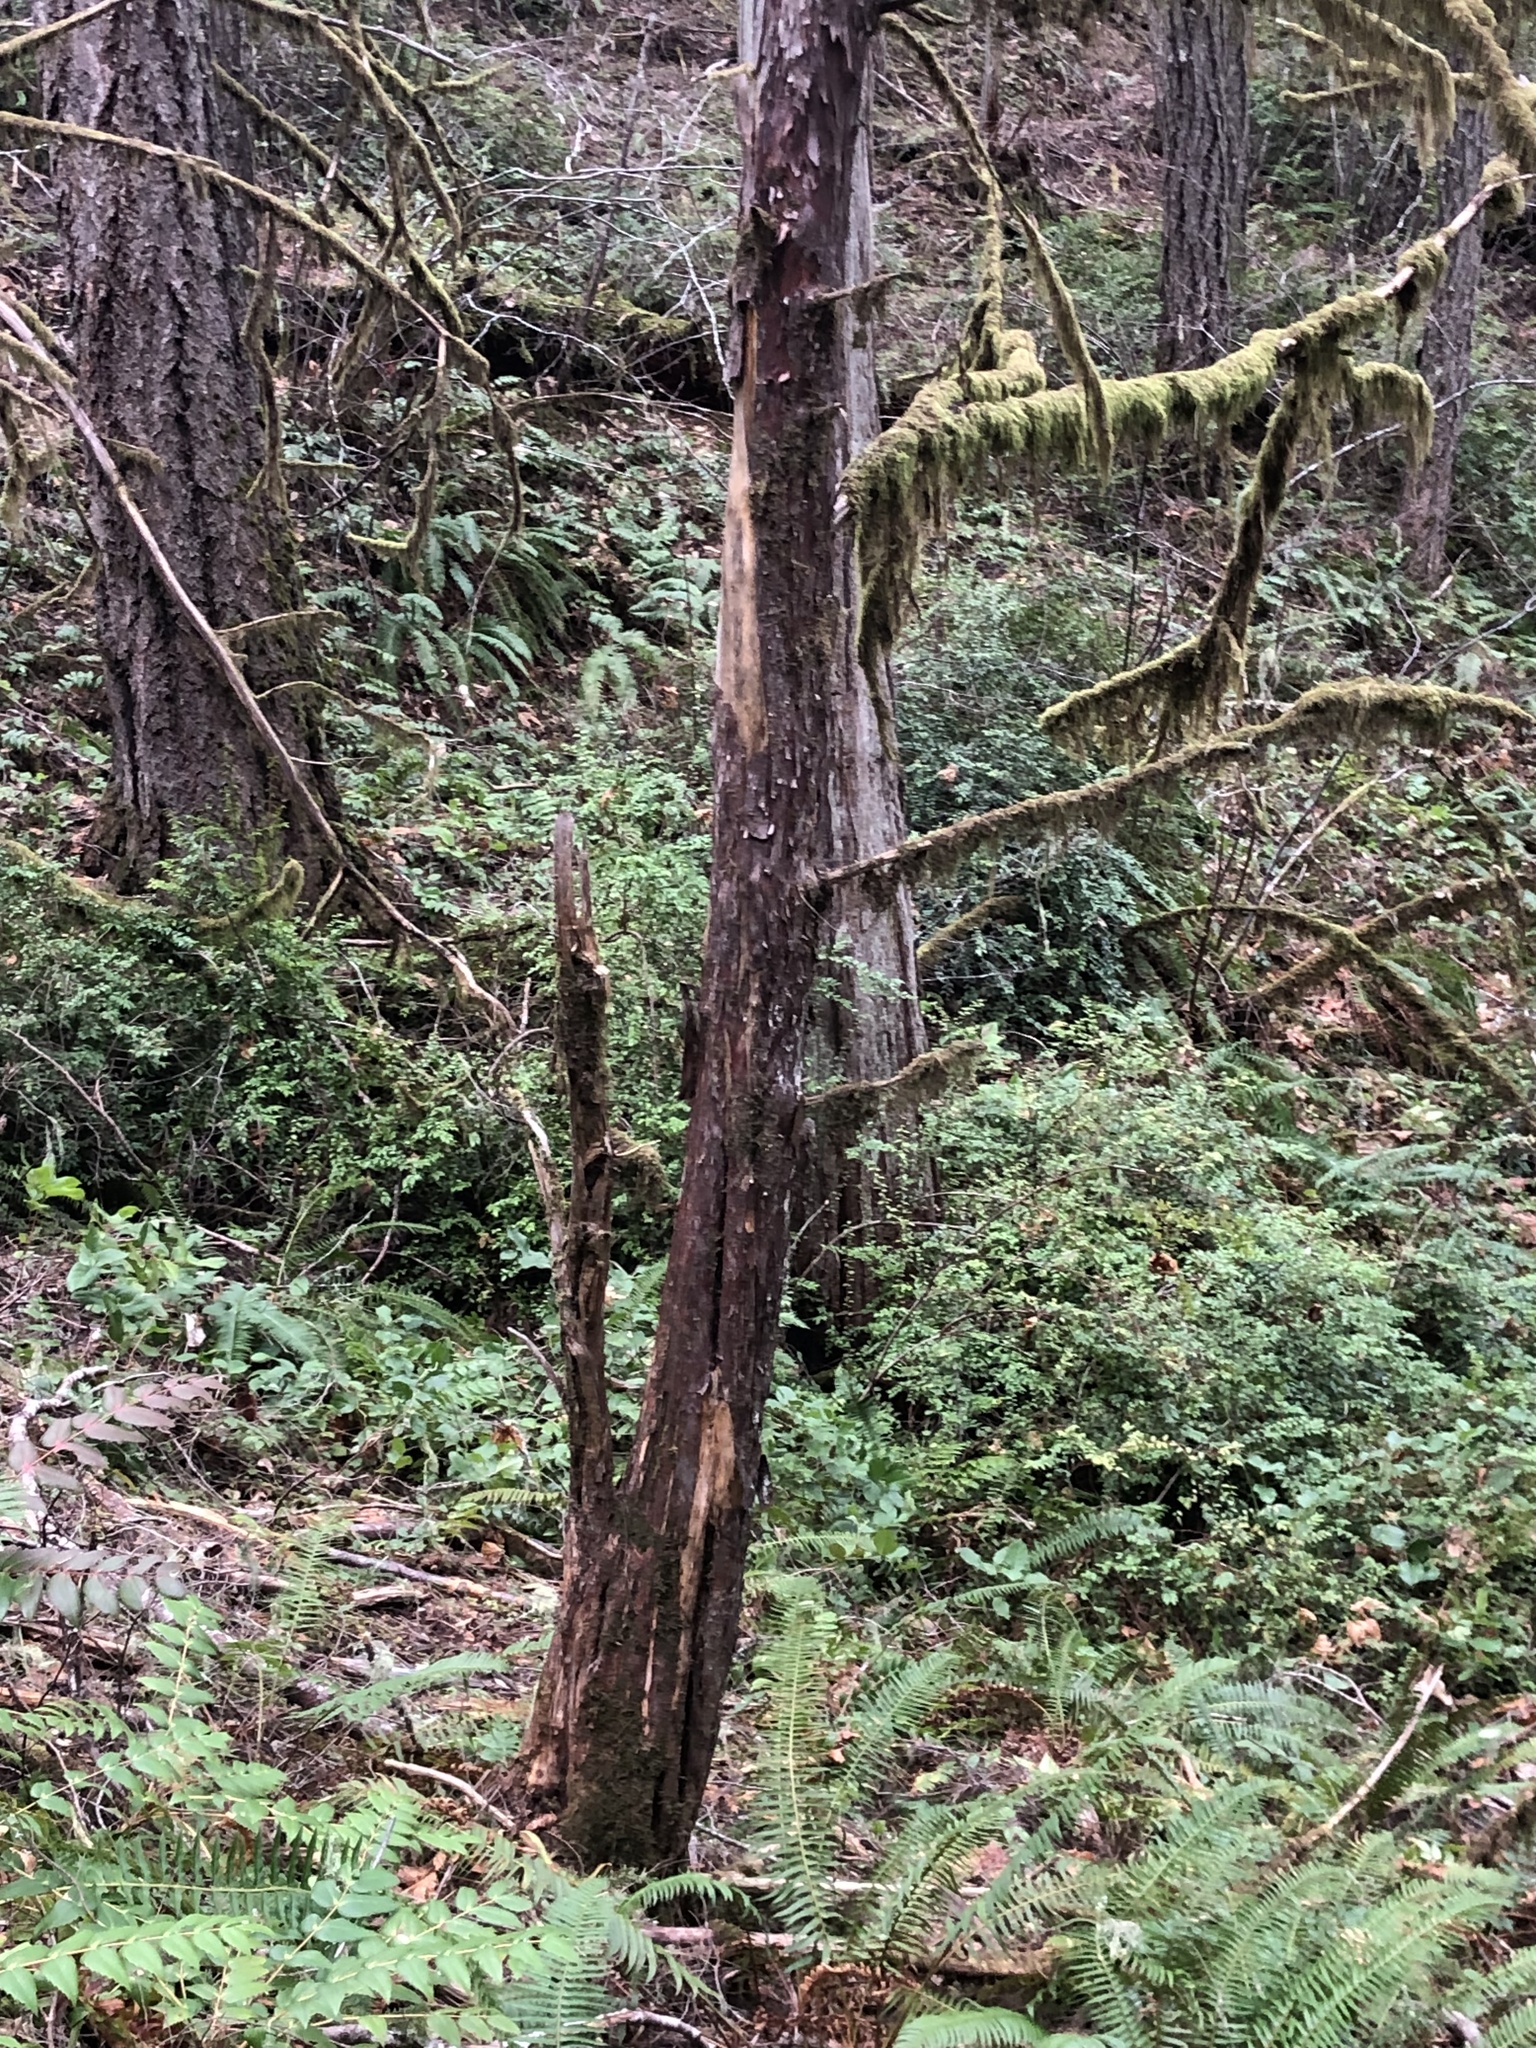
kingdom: Plantae
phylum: Tracheophyta
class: Pinopsida
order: Pinales
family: Taxaceae
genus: Taxus
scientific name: Taxus brevifolia
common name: Pacific yew
